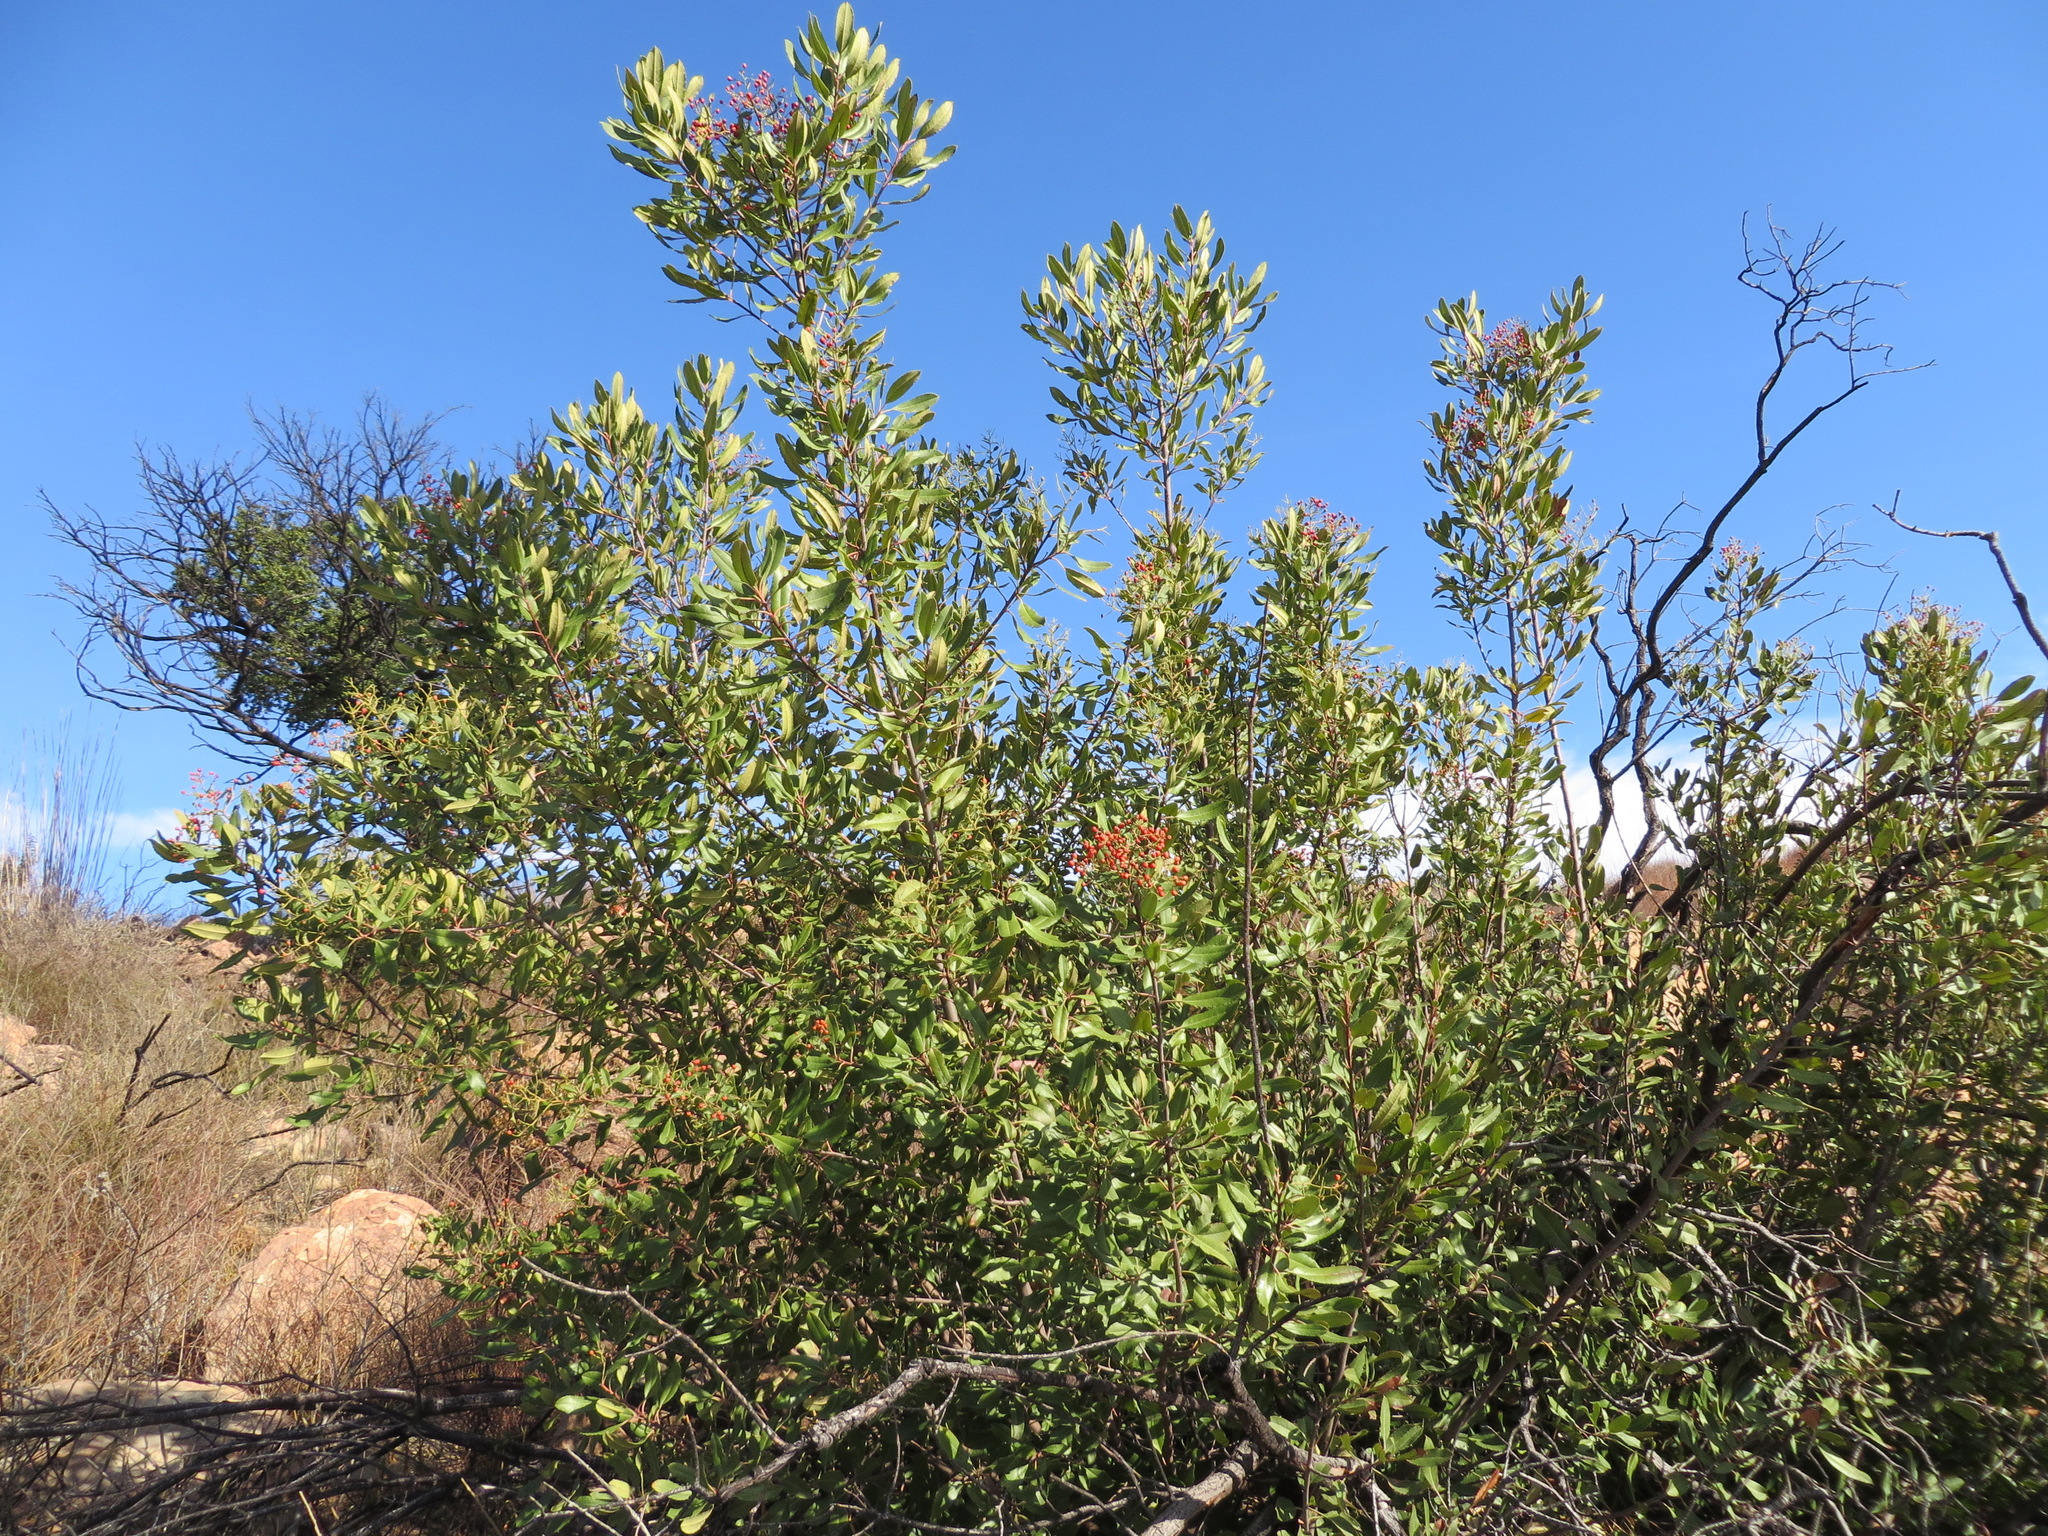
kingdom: Plantae
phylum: Tracheophyta
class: Magnoliopsida
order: Rosales
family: Rosaceae
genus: Heteromeles
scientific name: Heteromeles arbutifolia
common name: California-holly
